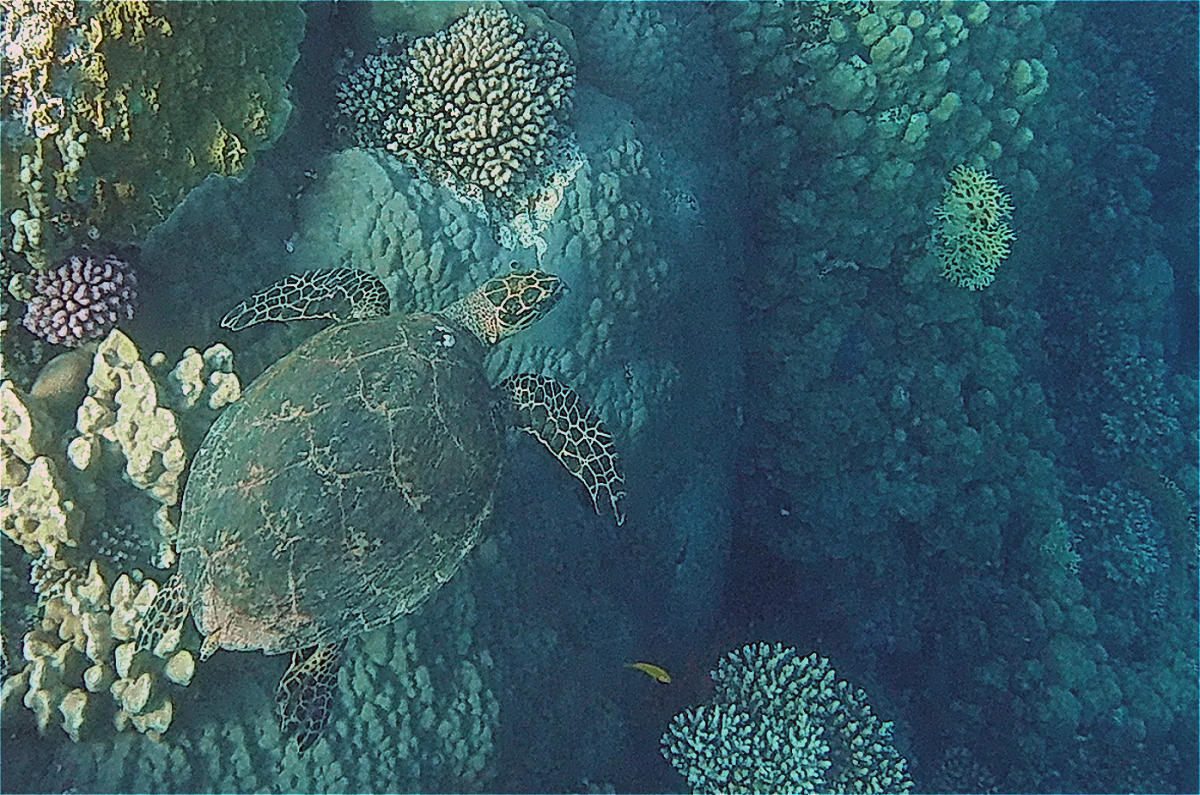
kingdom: Animalia
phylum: Chordata
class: Testudines
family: Cheloniidae
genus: Eretmochelys
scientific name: Eretmochelys imbricata
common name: Hawksbill turtle
